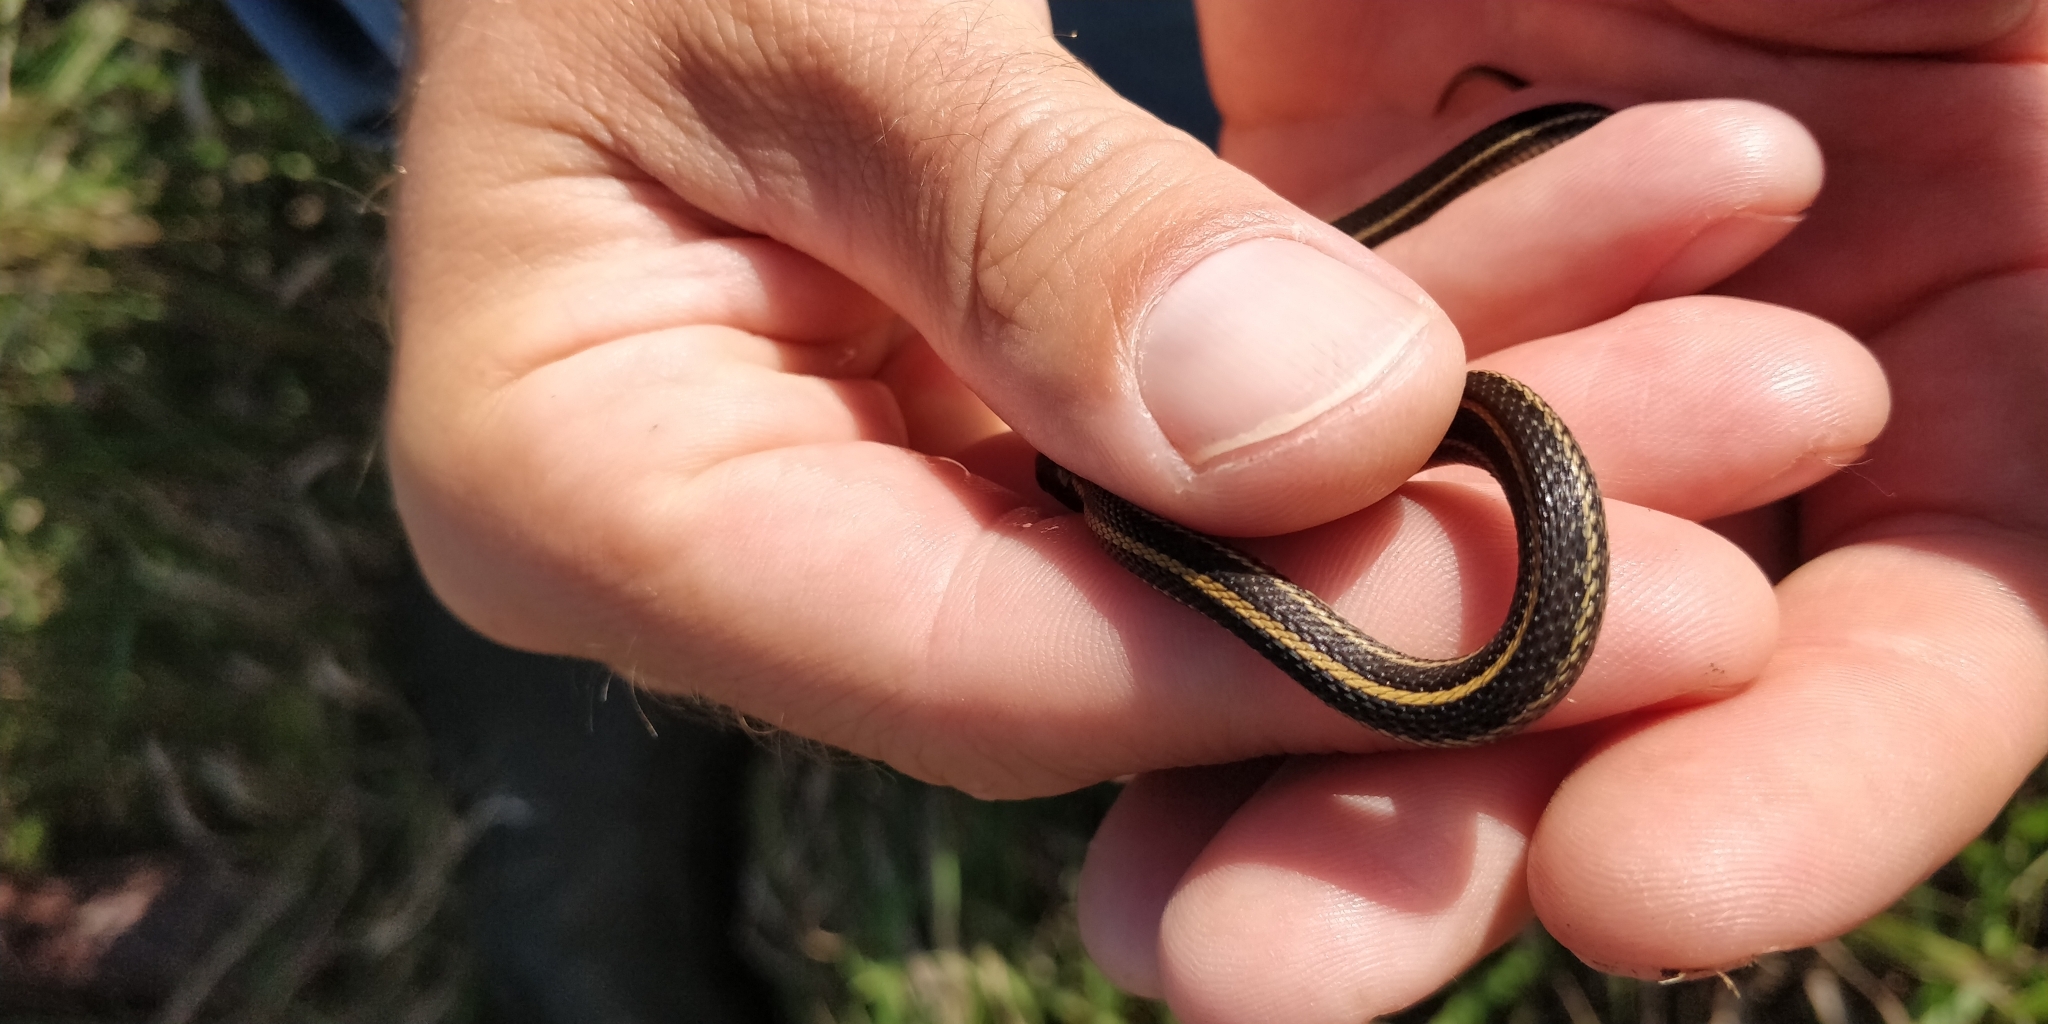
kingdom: Animalia
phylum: Chordata
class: Squamata
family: Colubridae
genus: Thamnophis
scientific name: Thamnophis radix
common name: Plains garter snake
